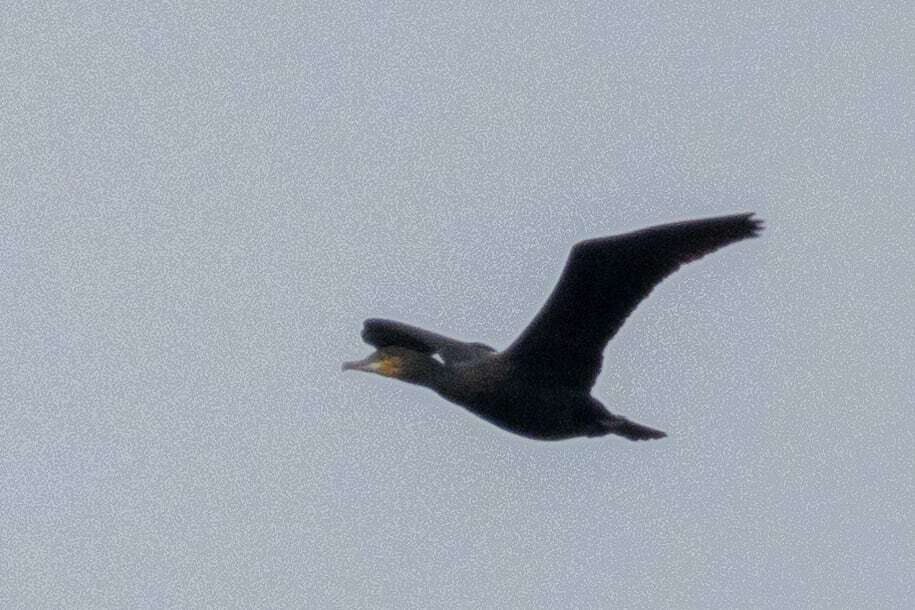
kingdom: Animalia
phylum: Chordata
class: Aves
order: Suliformes
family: Phalacrocoracidae
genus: Phalacrocorax
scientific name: Phalacrocorax carbo
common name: Great cormorant
